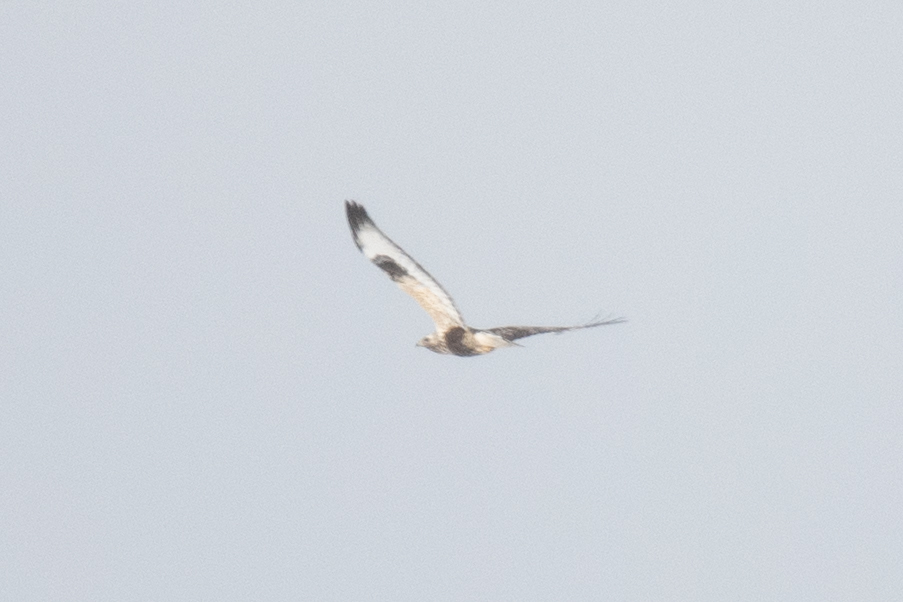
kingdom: Animalia
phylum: Chordata
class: Aves
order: Accipitriformes
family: Accipitridae
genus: Buteo
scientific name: Buteo lagopus
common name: Rough-legged buzzard
